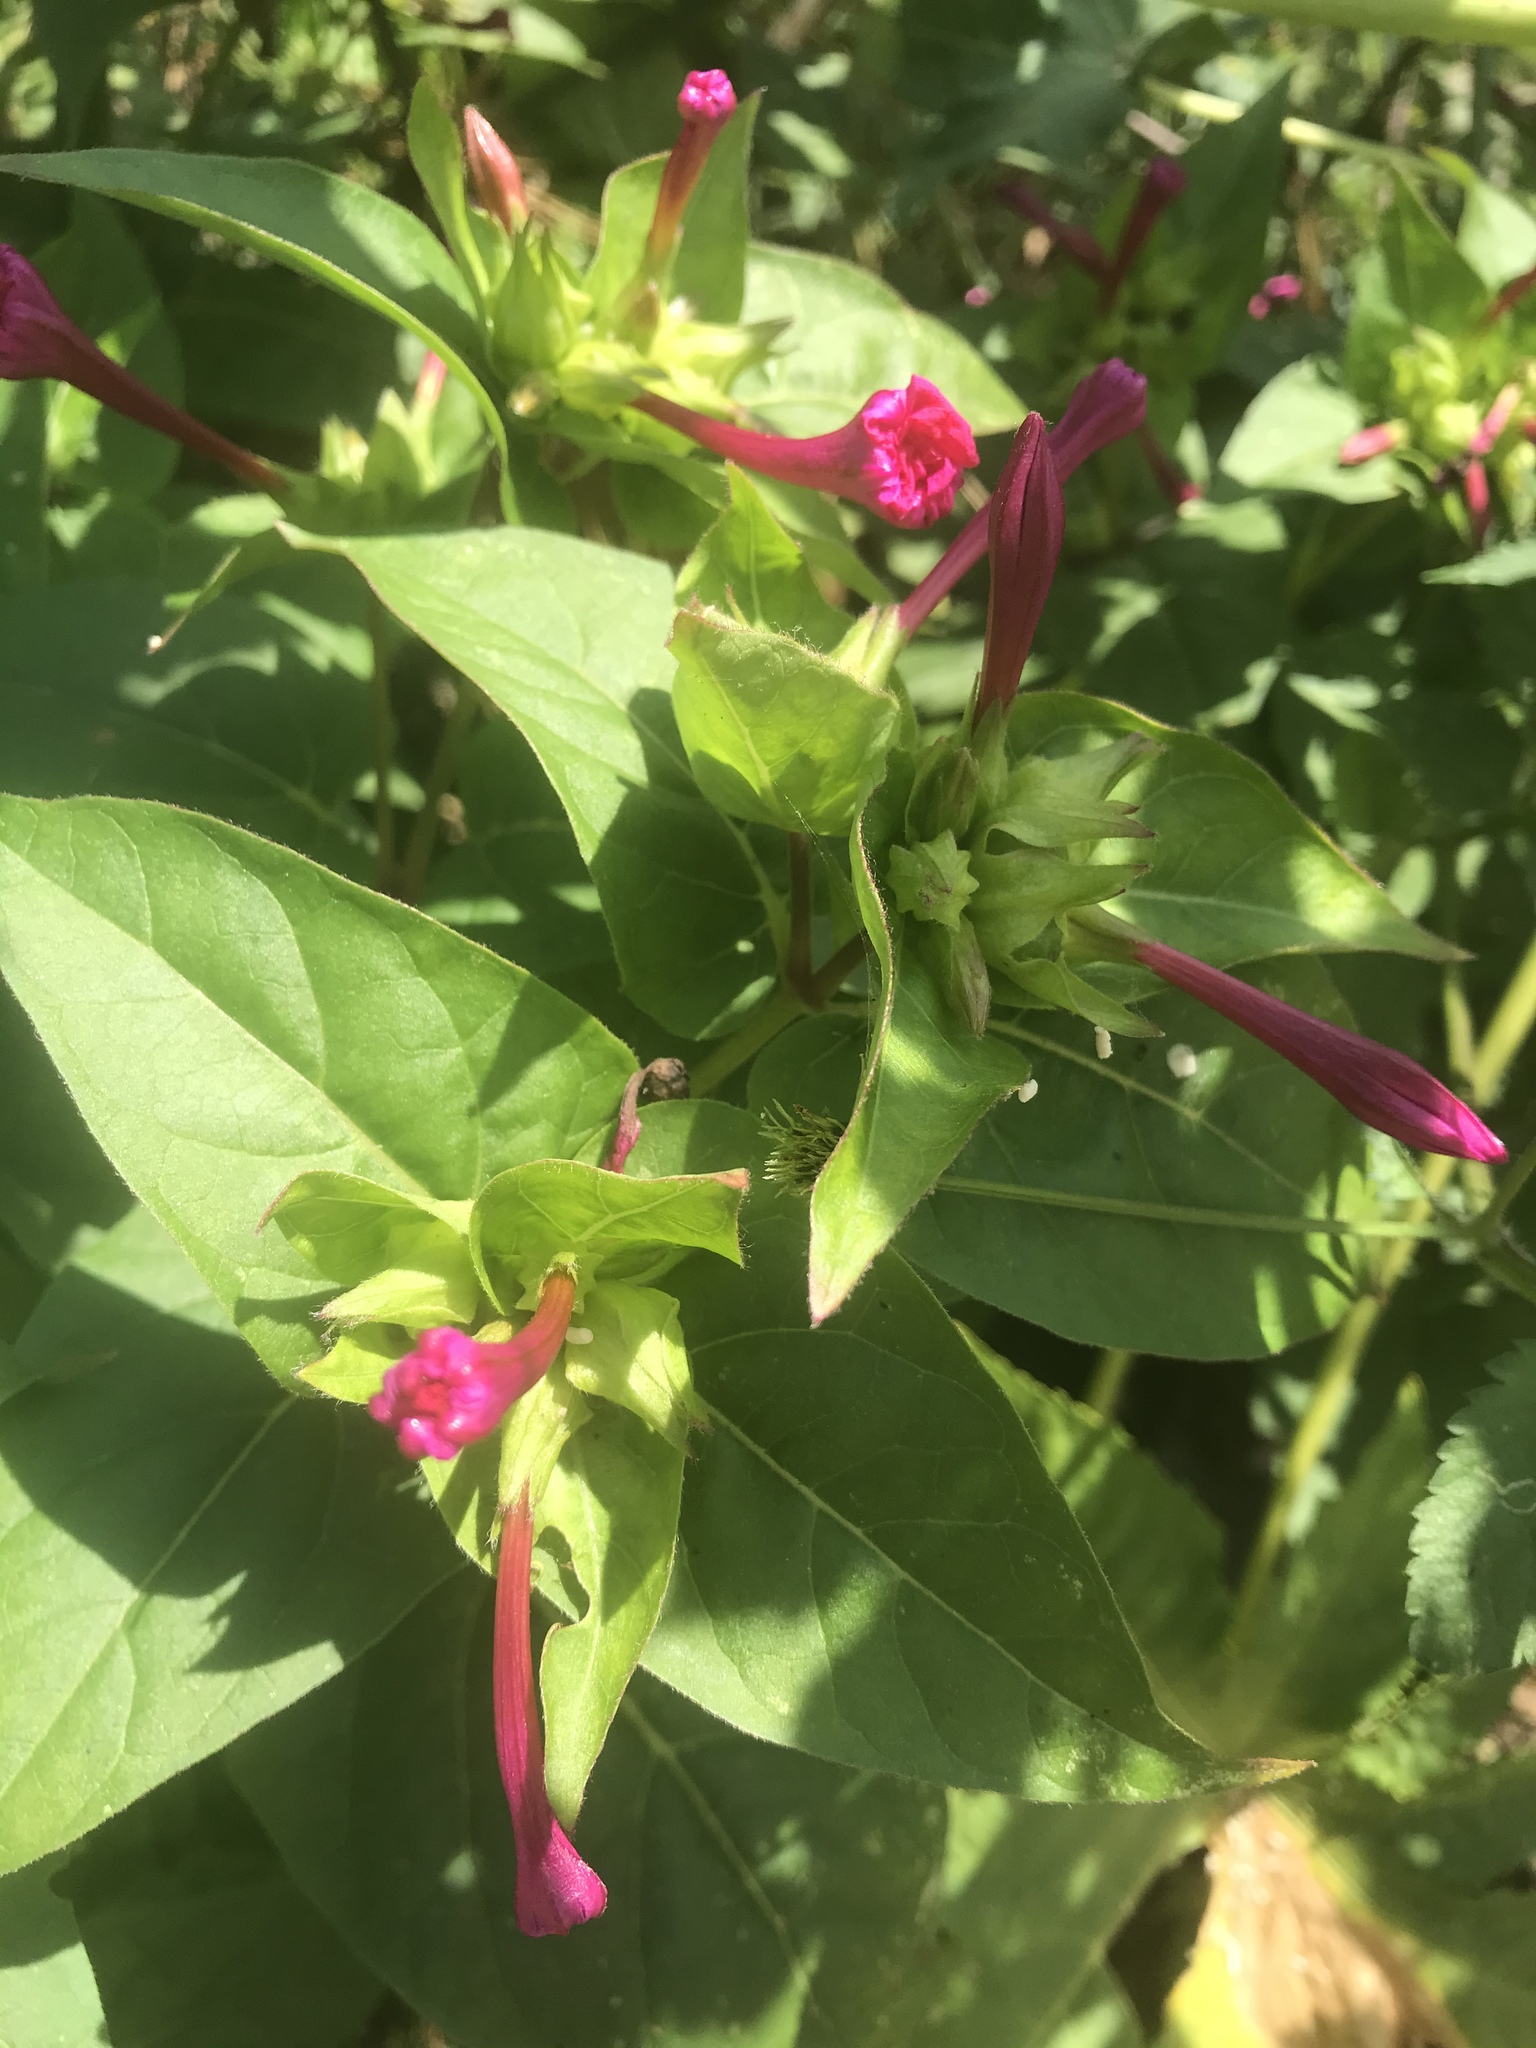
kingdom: Plantae
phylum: Tracheophyta
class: Magnoliopsida
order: Caryophyllales
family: Nyctaginaceae
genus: Mirabilis
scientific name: Mirabilis jalapa
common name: Marvel-of-peru
